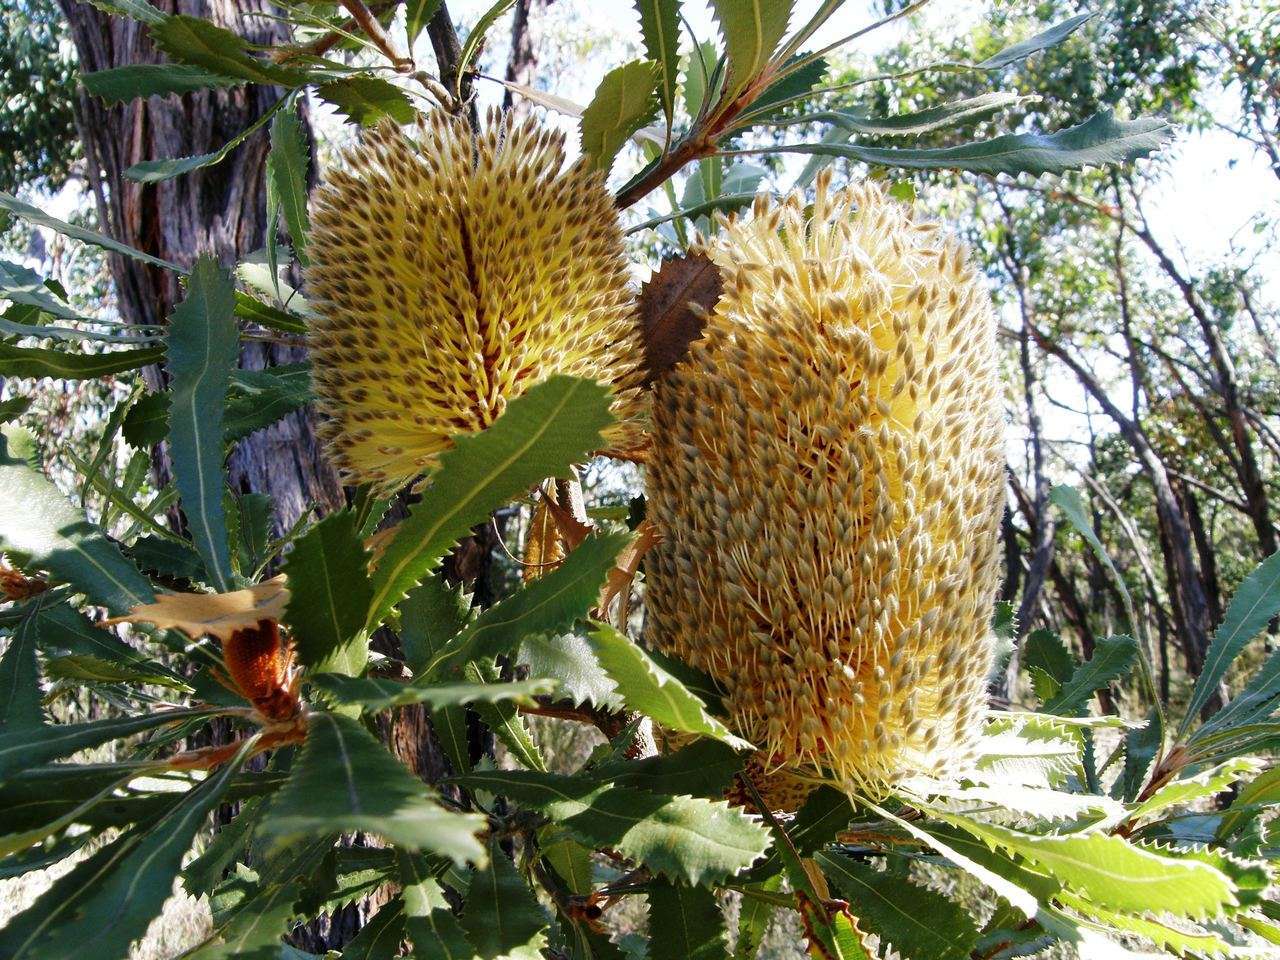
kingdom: Plantae
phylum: Tracheophyta
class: Magnoliopsida
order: Proteales
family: Proteaceae
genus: Banksia
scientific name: Banksia ornata
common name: Desert banksia
